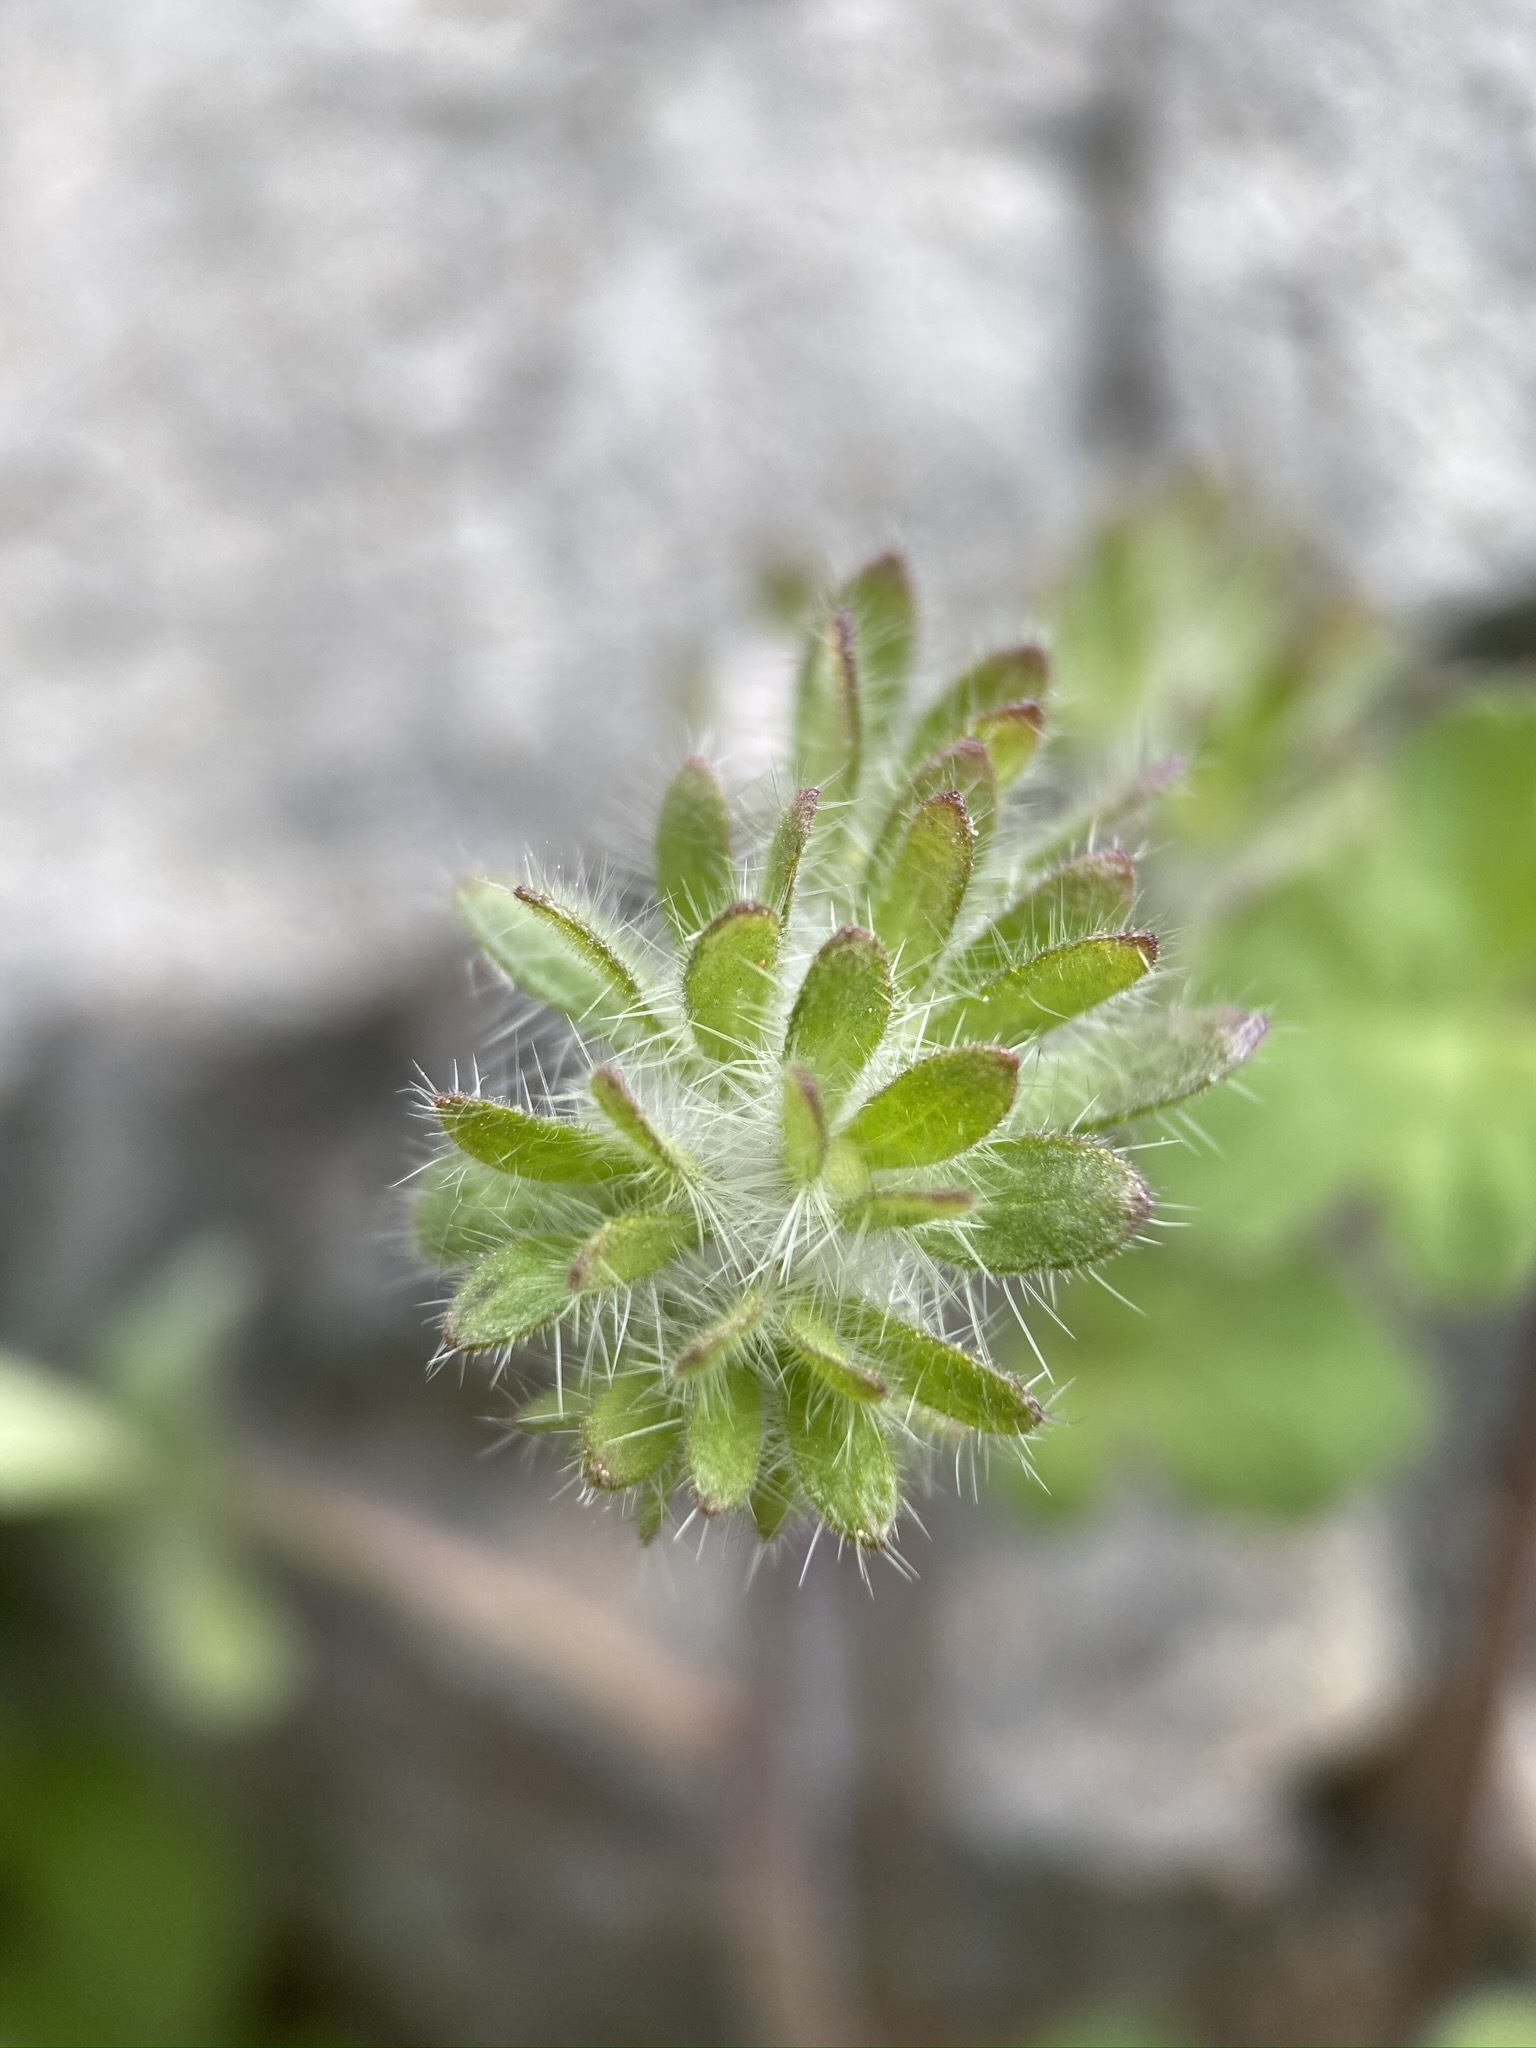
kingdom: Plantae
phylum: Tracheophyta
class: Magnoliopsida
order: Boraginales
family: Hydrophyllaceae
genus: Phacelia
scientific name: Phacelia cryptantha
